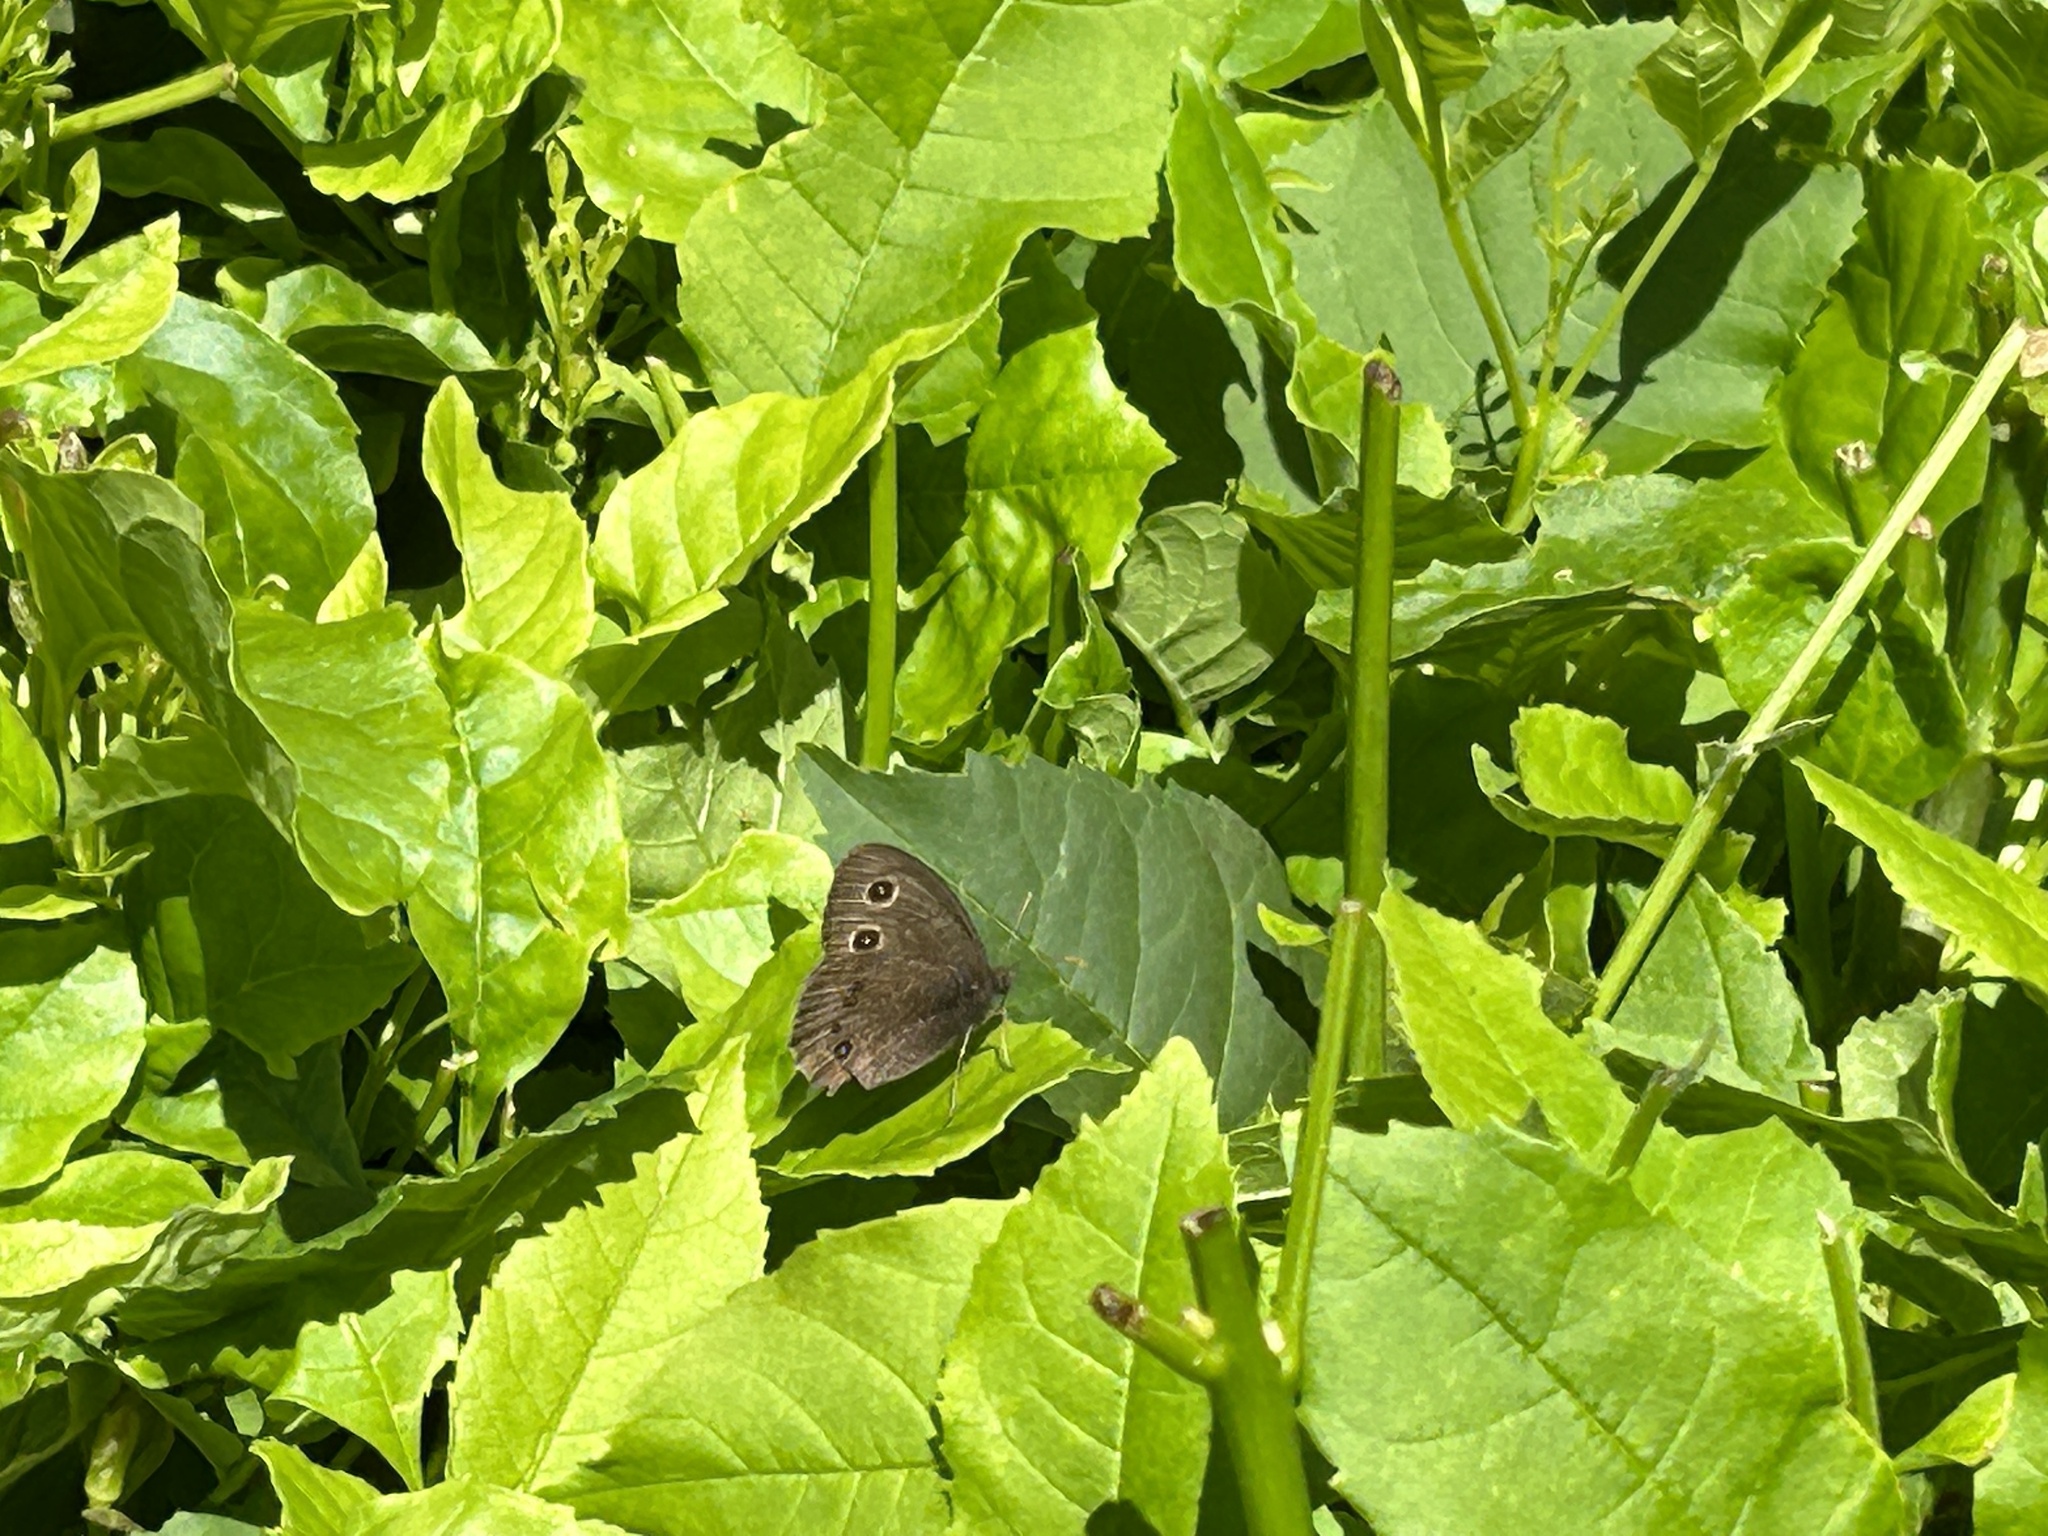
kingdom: Animalia
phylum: Arthropoda
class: Insecta
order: Lepidoptera
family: Nymphalidae
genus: Cercyonis
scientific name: Cercyonis pegala
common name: Common wood-nymph
